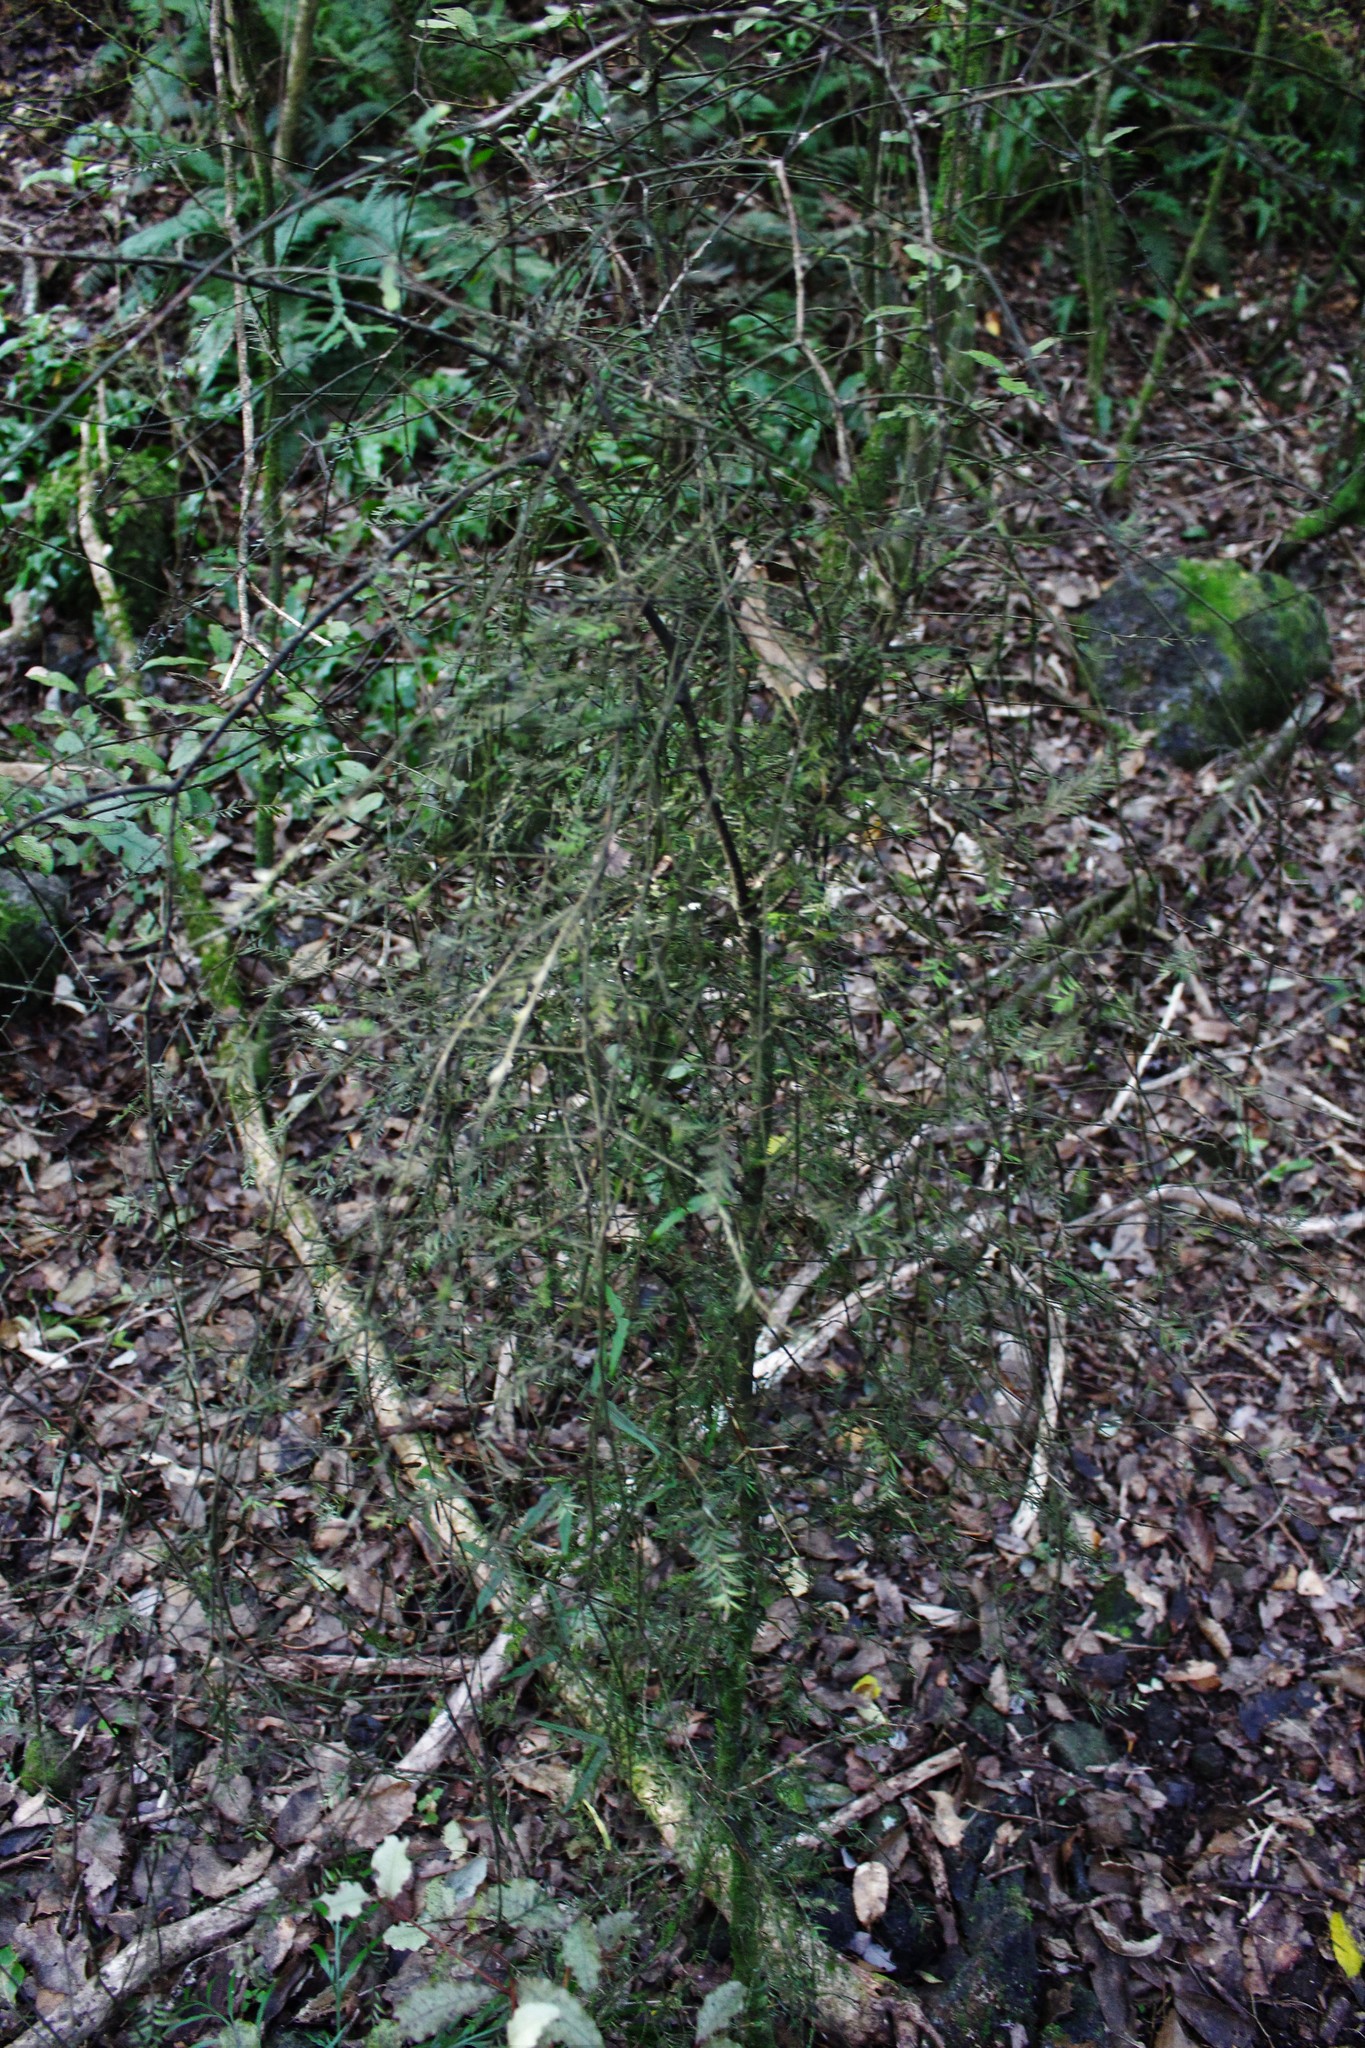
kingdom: Plantae
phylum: Tracheophyta
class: Pinopsida
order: Pinales
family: Podocarpaceae
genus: Prumnopitys
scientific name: Prumnopitys taxifolia
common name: Matai
